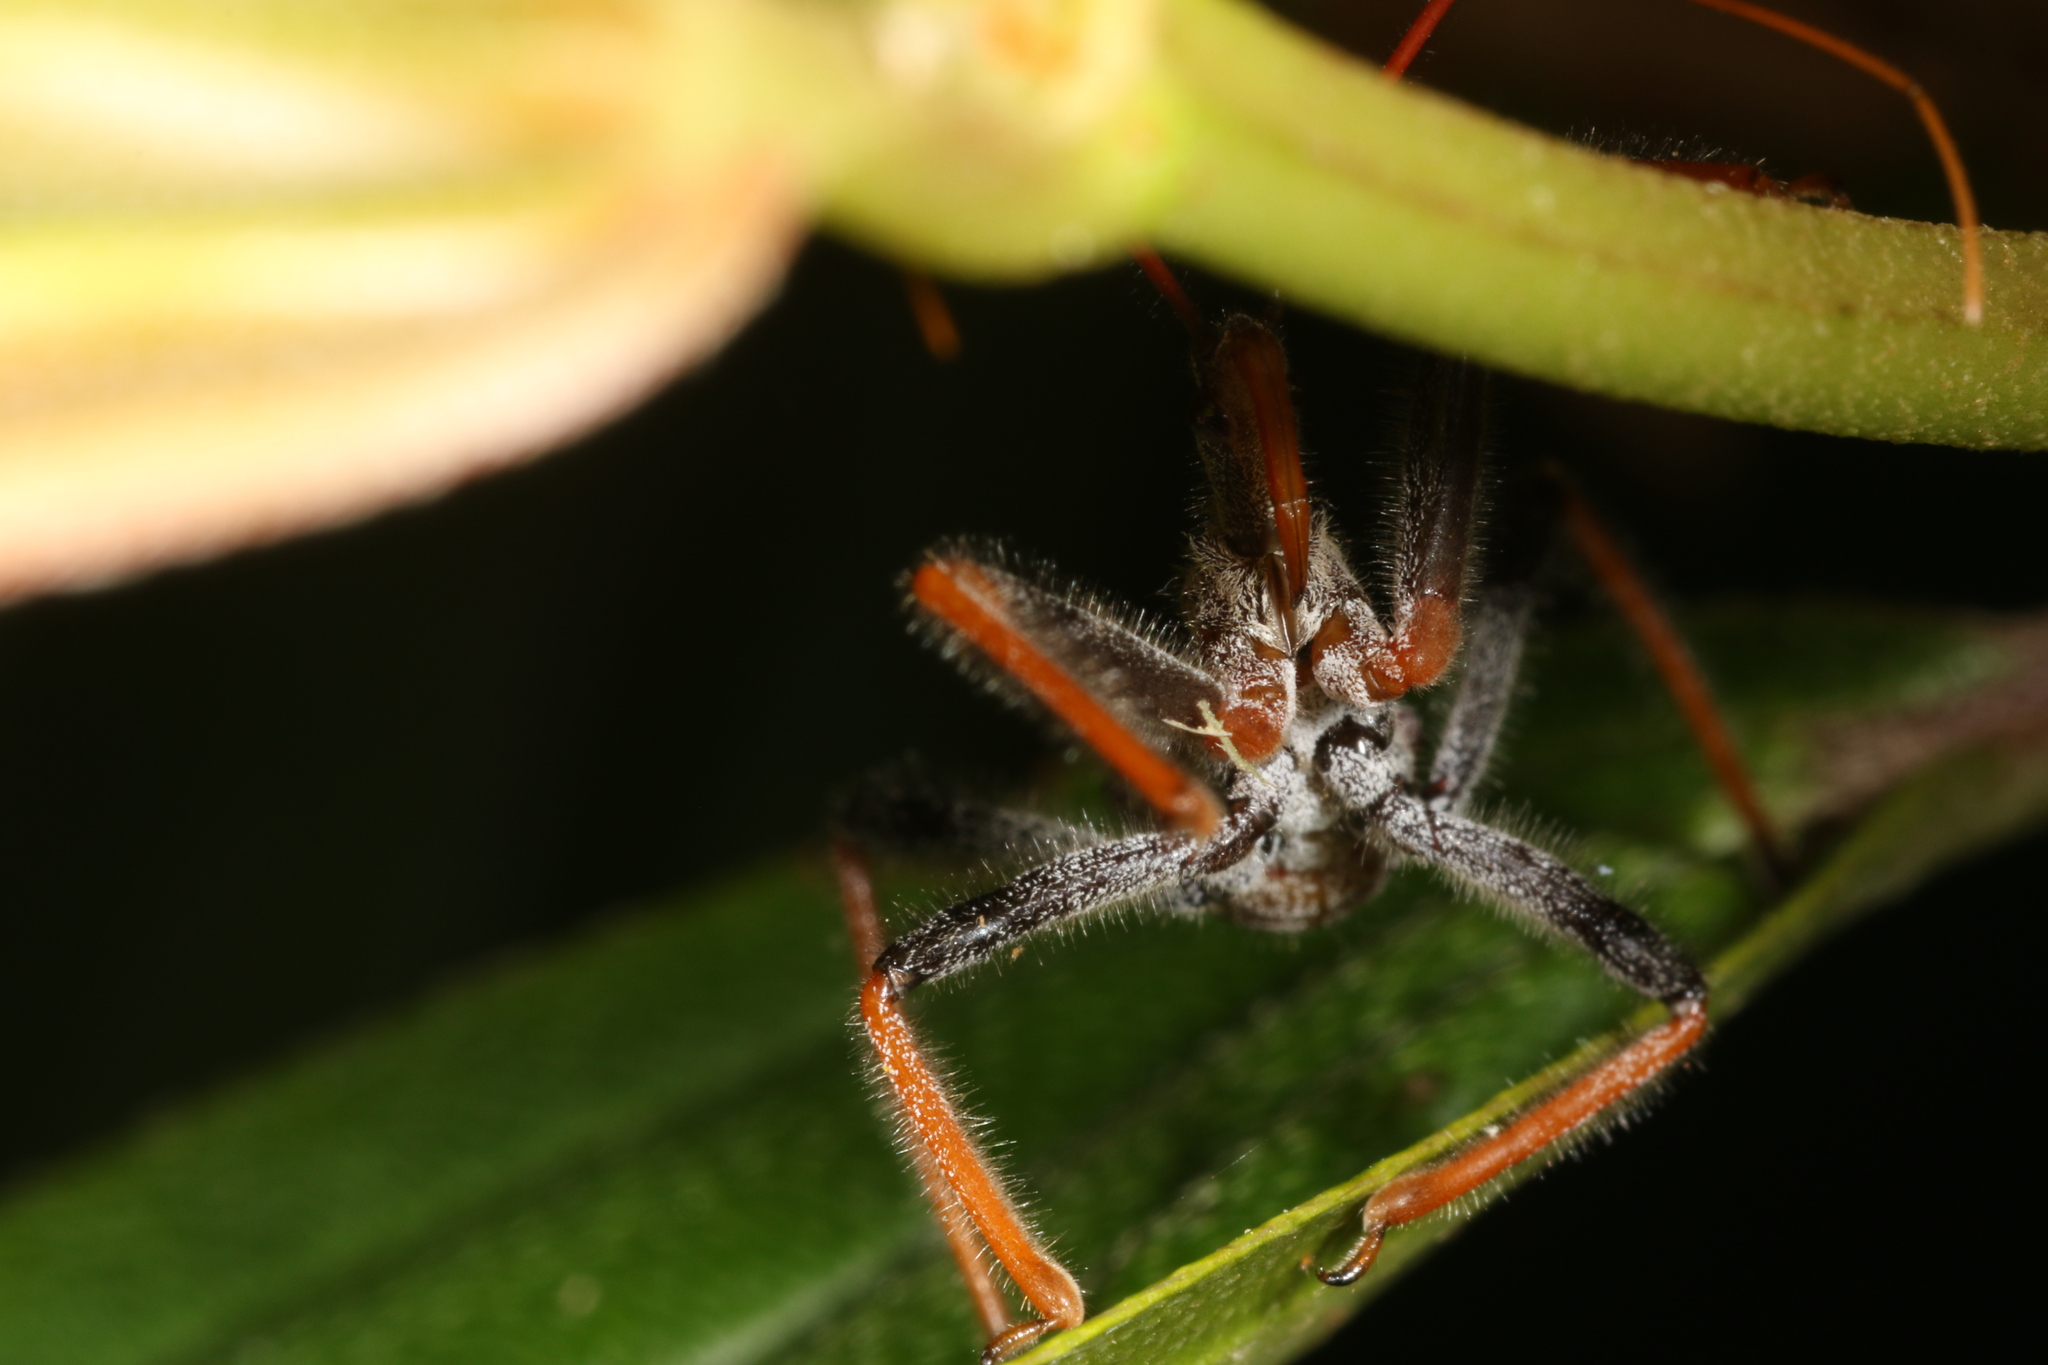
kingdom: Animalia
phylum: Arthropoda
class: Insecta
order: Hemiptera
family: Reduviidae
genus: Arilus
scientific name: Arilus carinatus
